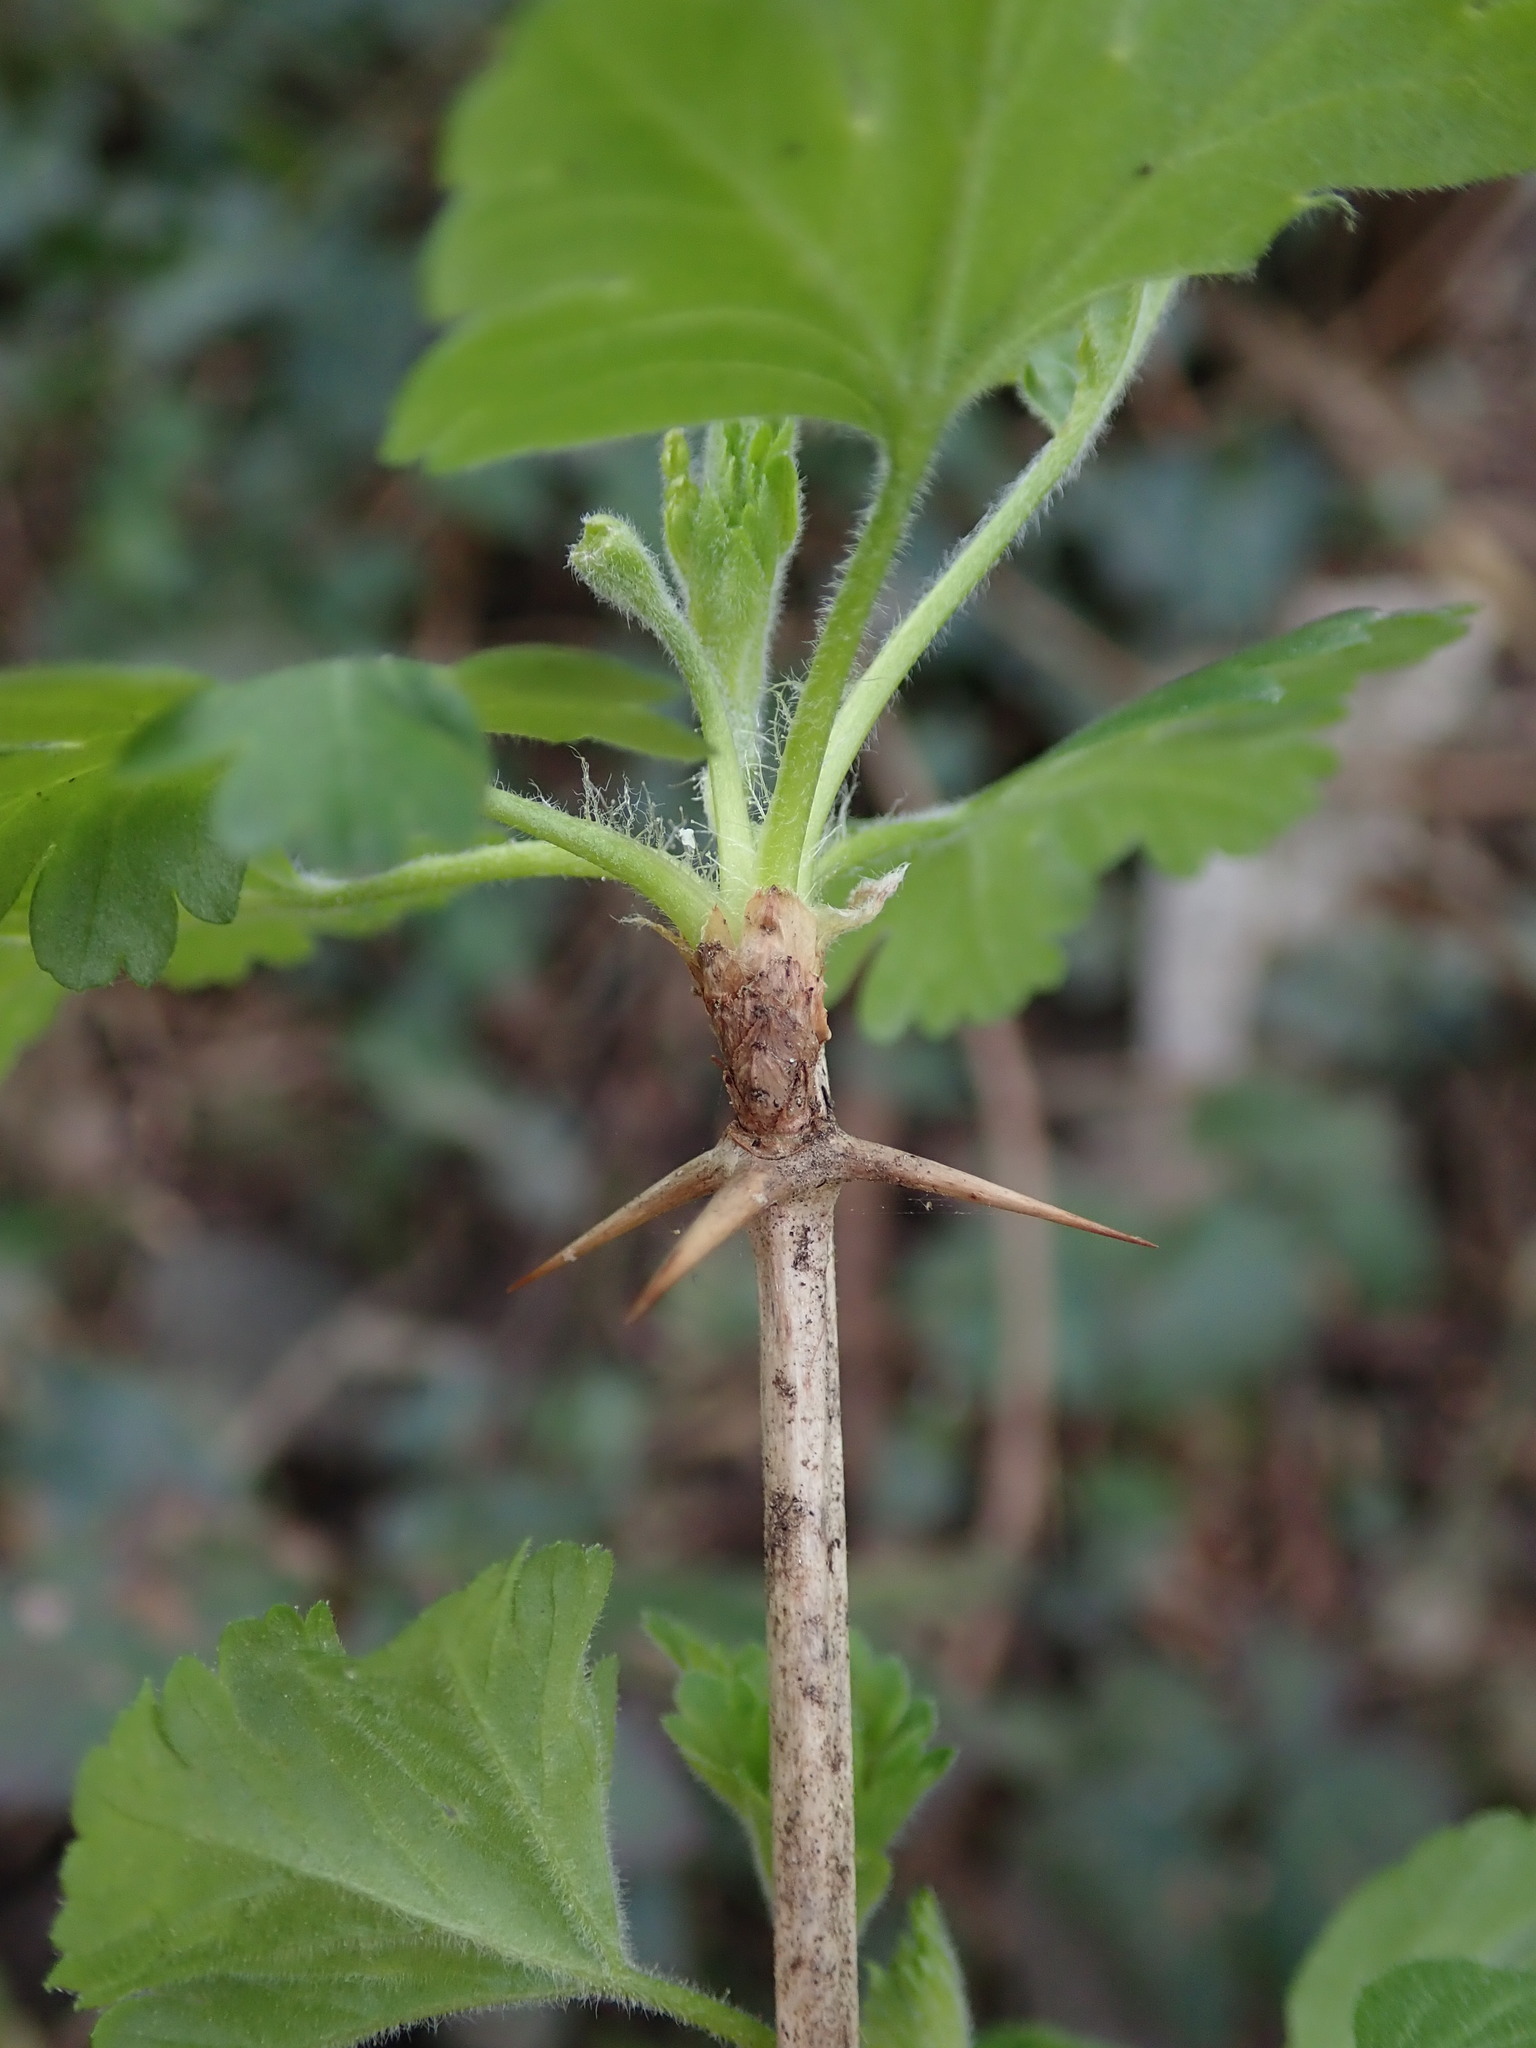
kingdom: Plantae
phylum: Tracheophyta
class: Magnoliopsida
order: Saxifragales
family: Grossulariaceae
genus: Ribes
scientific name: Ribes uva-crispa
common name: Gooseberry
